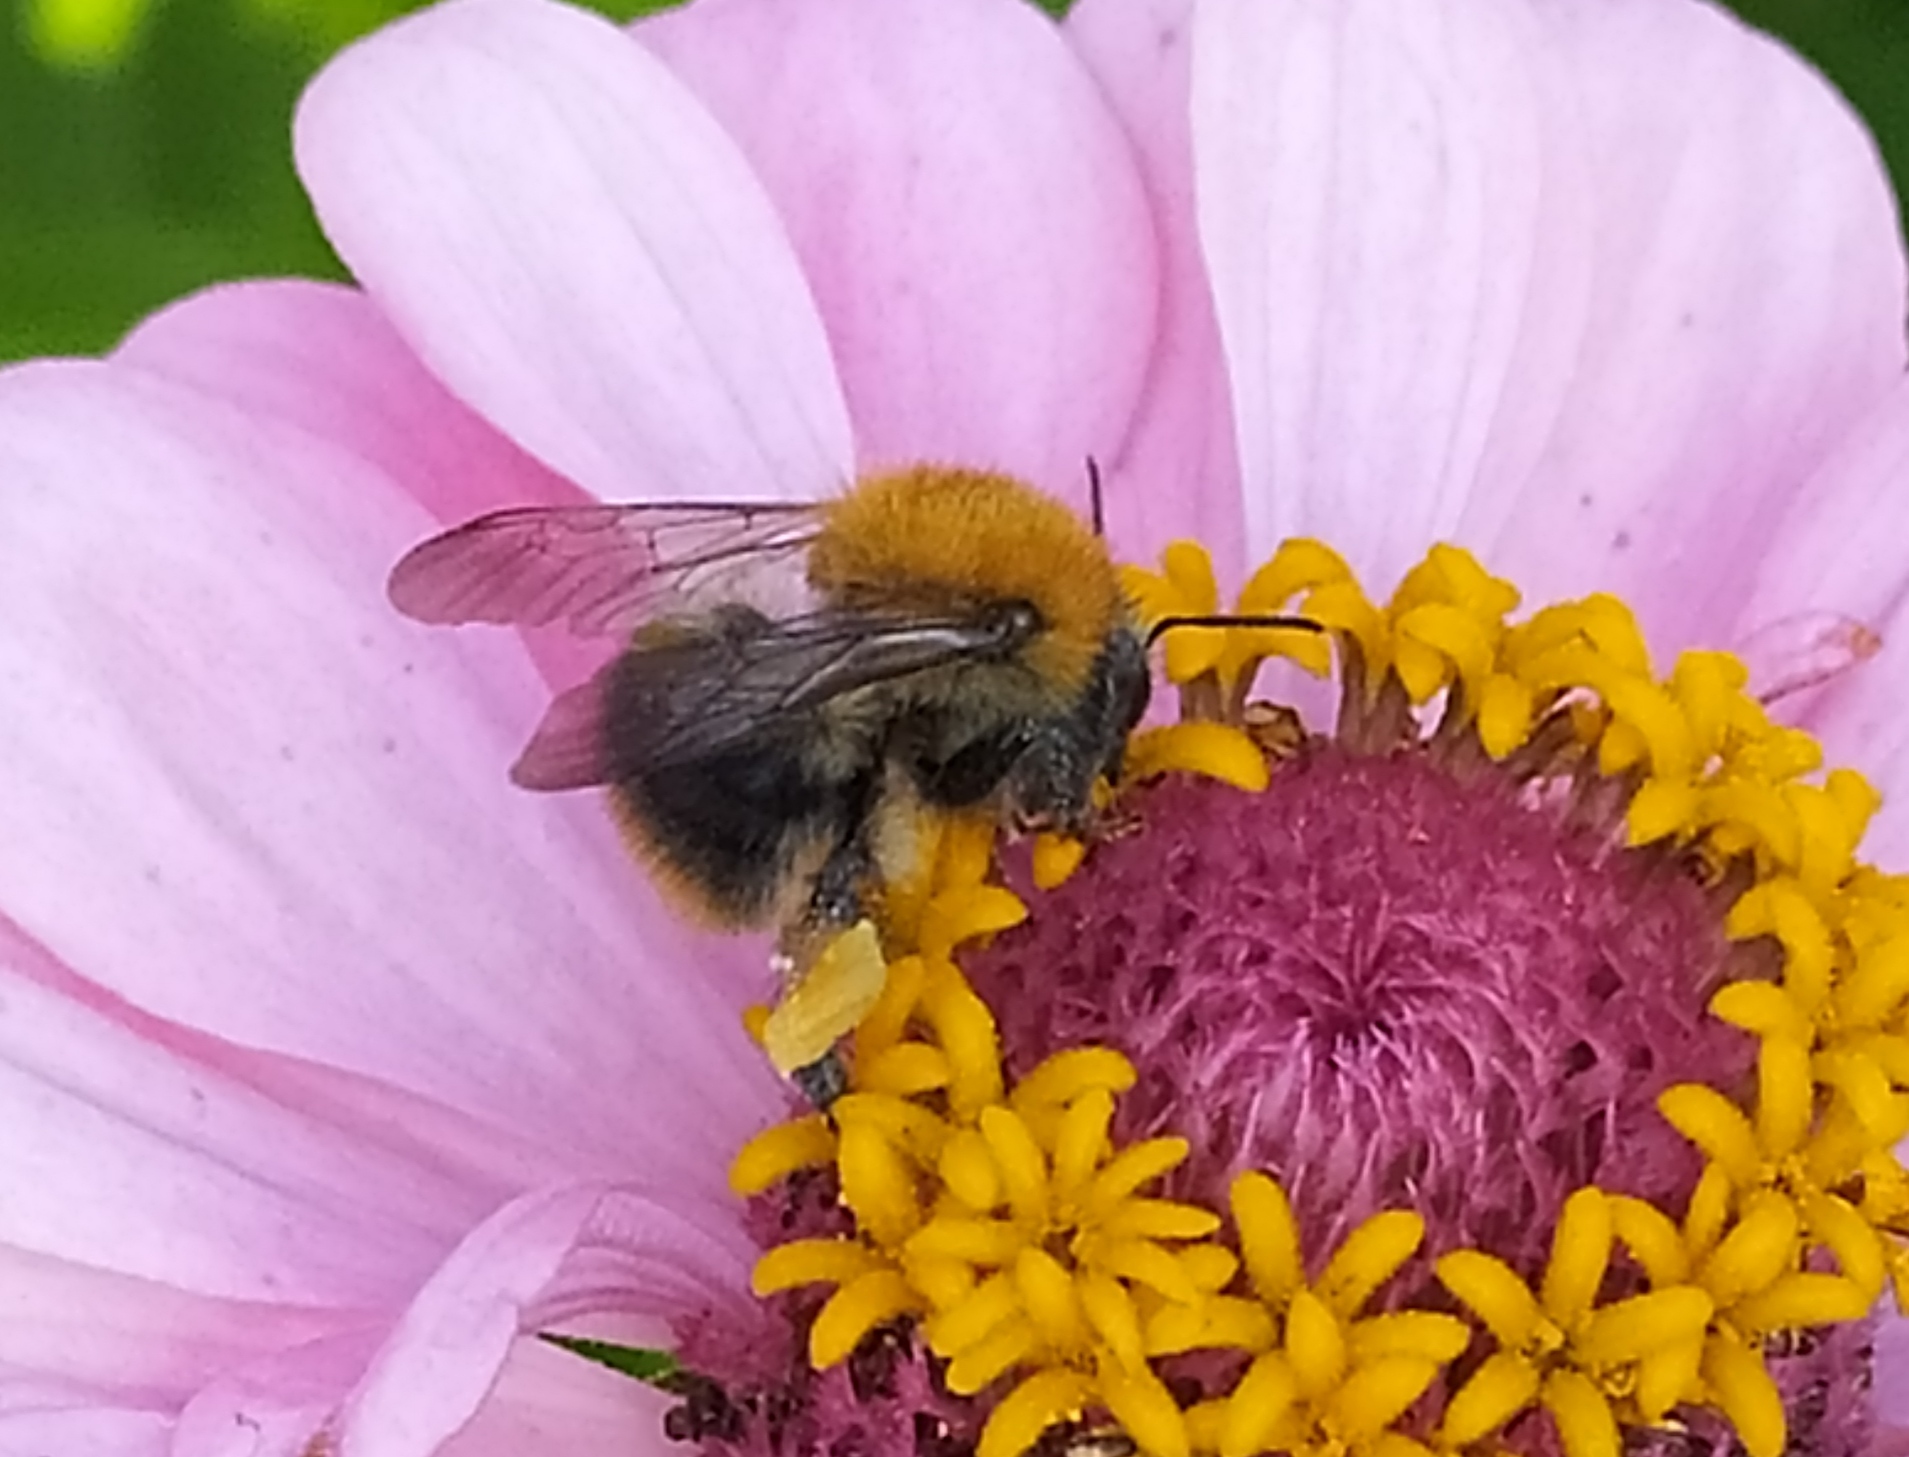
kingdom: Animalia
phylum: Arthropoda
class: Insecta
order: Hymenoptera
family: Apidae
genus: Bombus
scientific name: Bombus pascuorum
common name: Common carder bee
